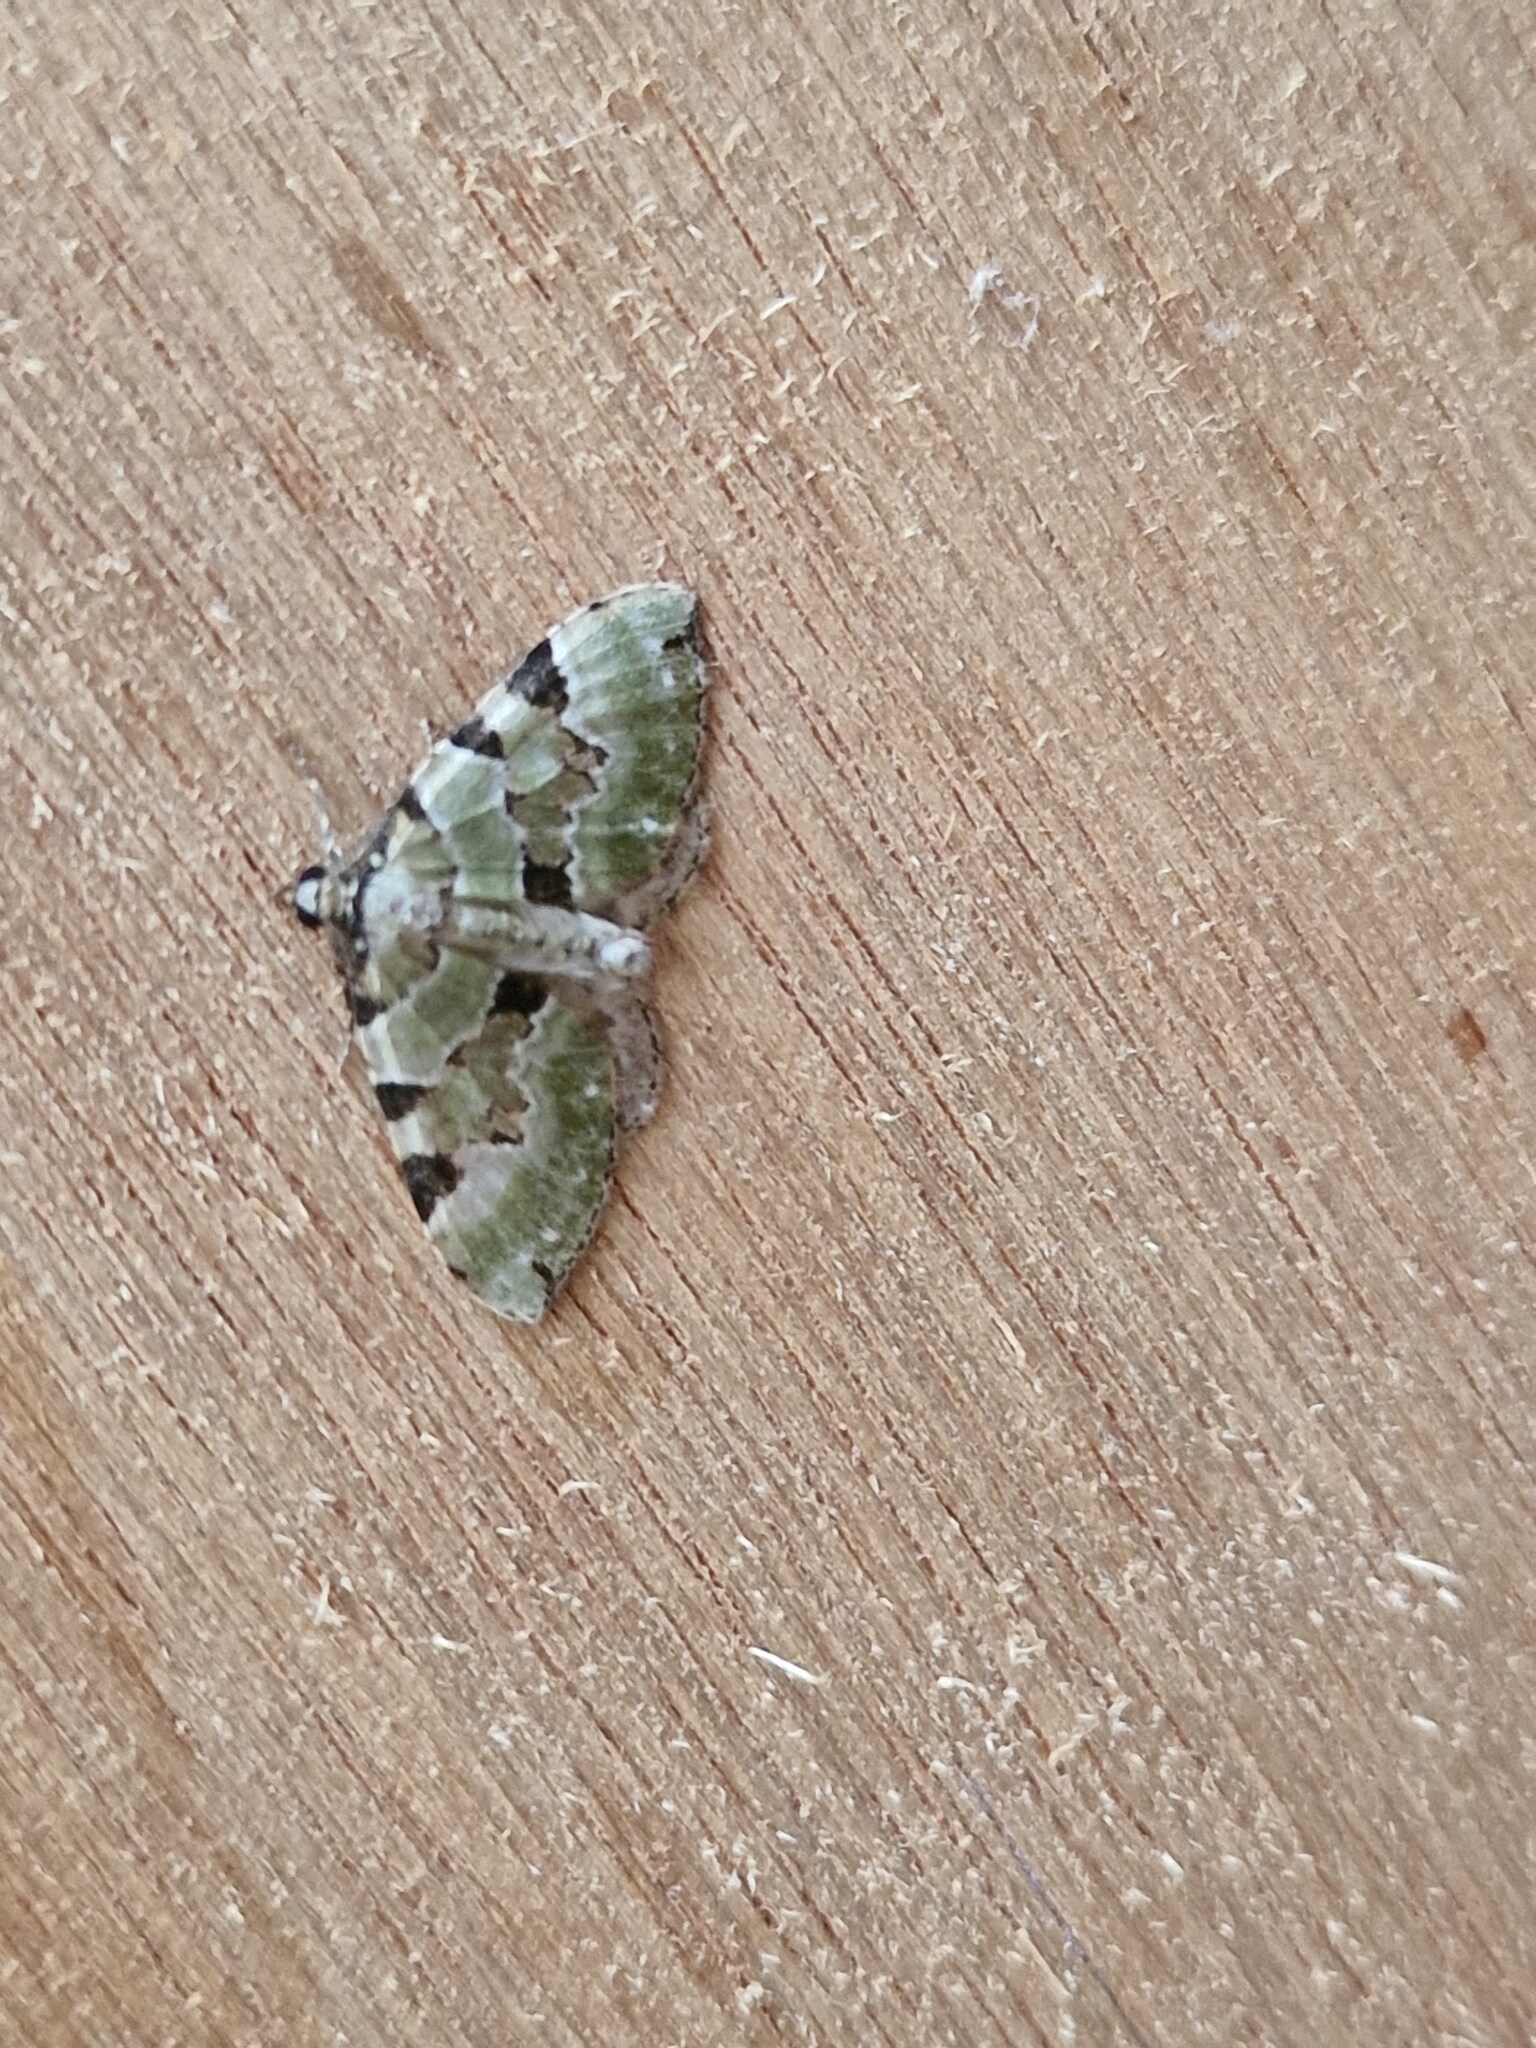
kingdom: Animalia
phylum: Arthropoda
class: Insecta
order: Lepidoptera
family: Geometridae
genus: Colostygia
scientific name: Colostygia pectinataria
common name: Green carpet
